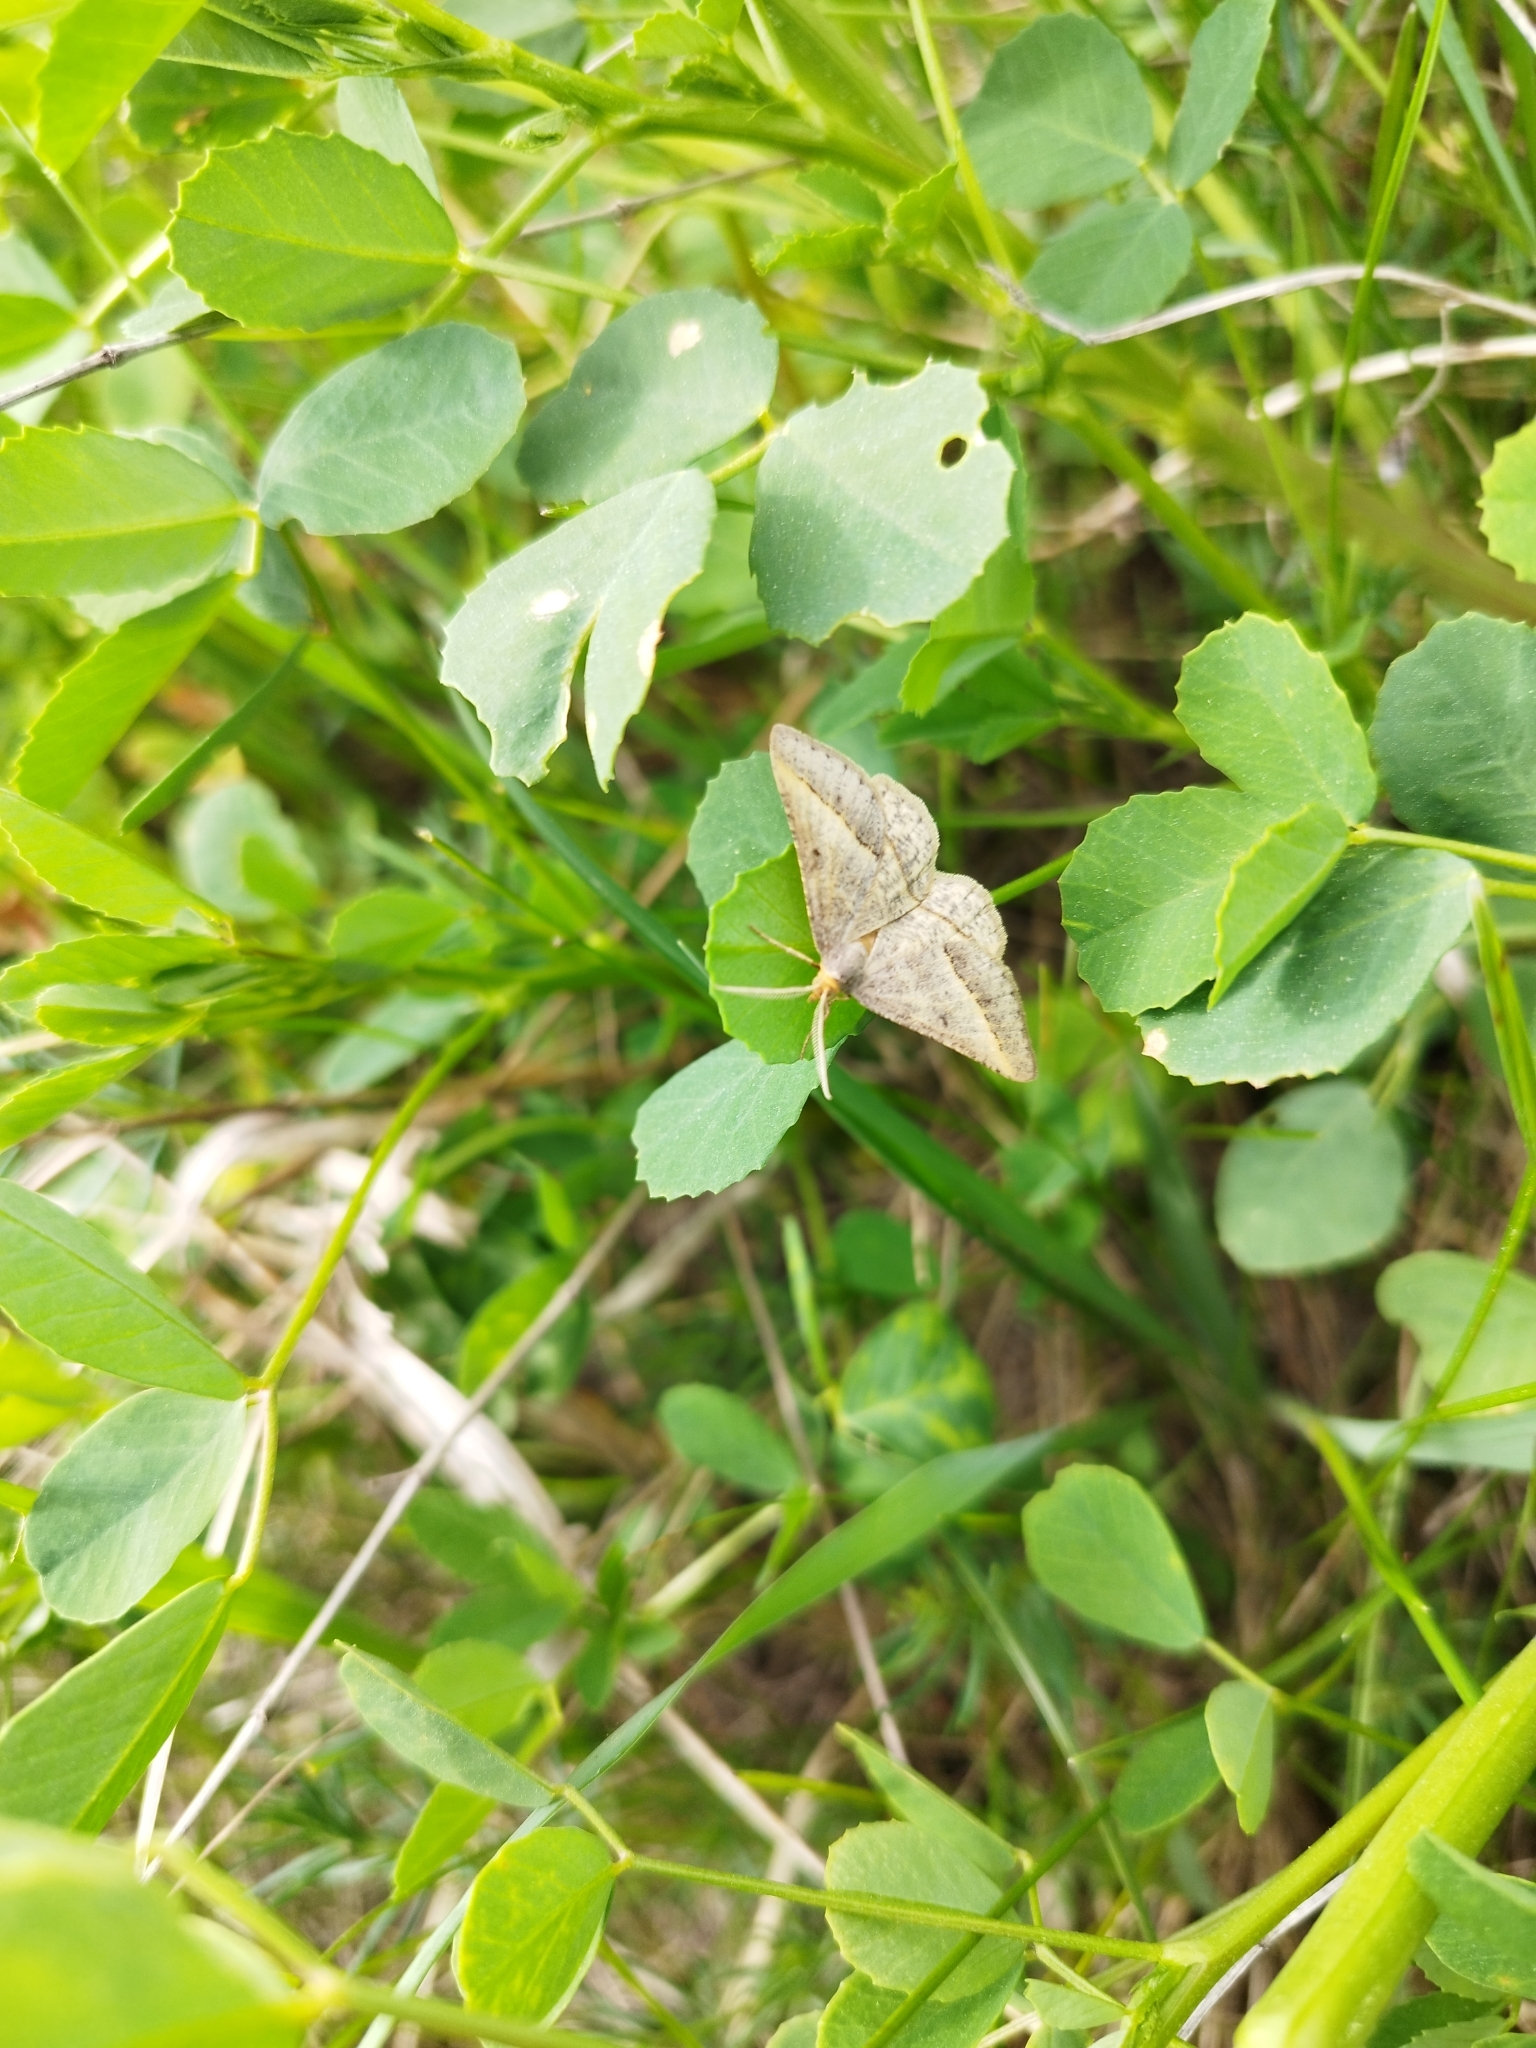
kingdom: Animalia
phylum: Arthropoda
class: Insecta
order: Lepidoptera
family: Geometridae
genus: Tephrina
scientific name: Tephrina arenacearia
